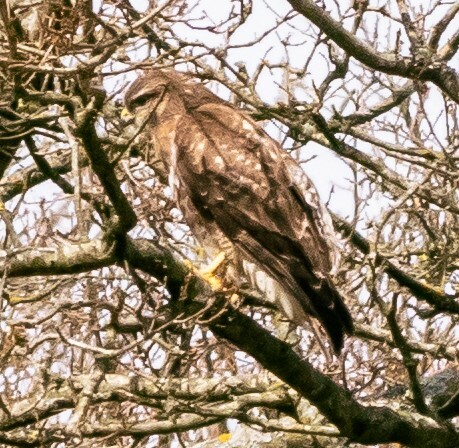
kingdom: Animalia
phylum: Chordata
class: Aves
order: Accipitriformes
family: Accipitridae
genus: Buteo
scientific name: Buteo buteo
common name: Common buzzard
